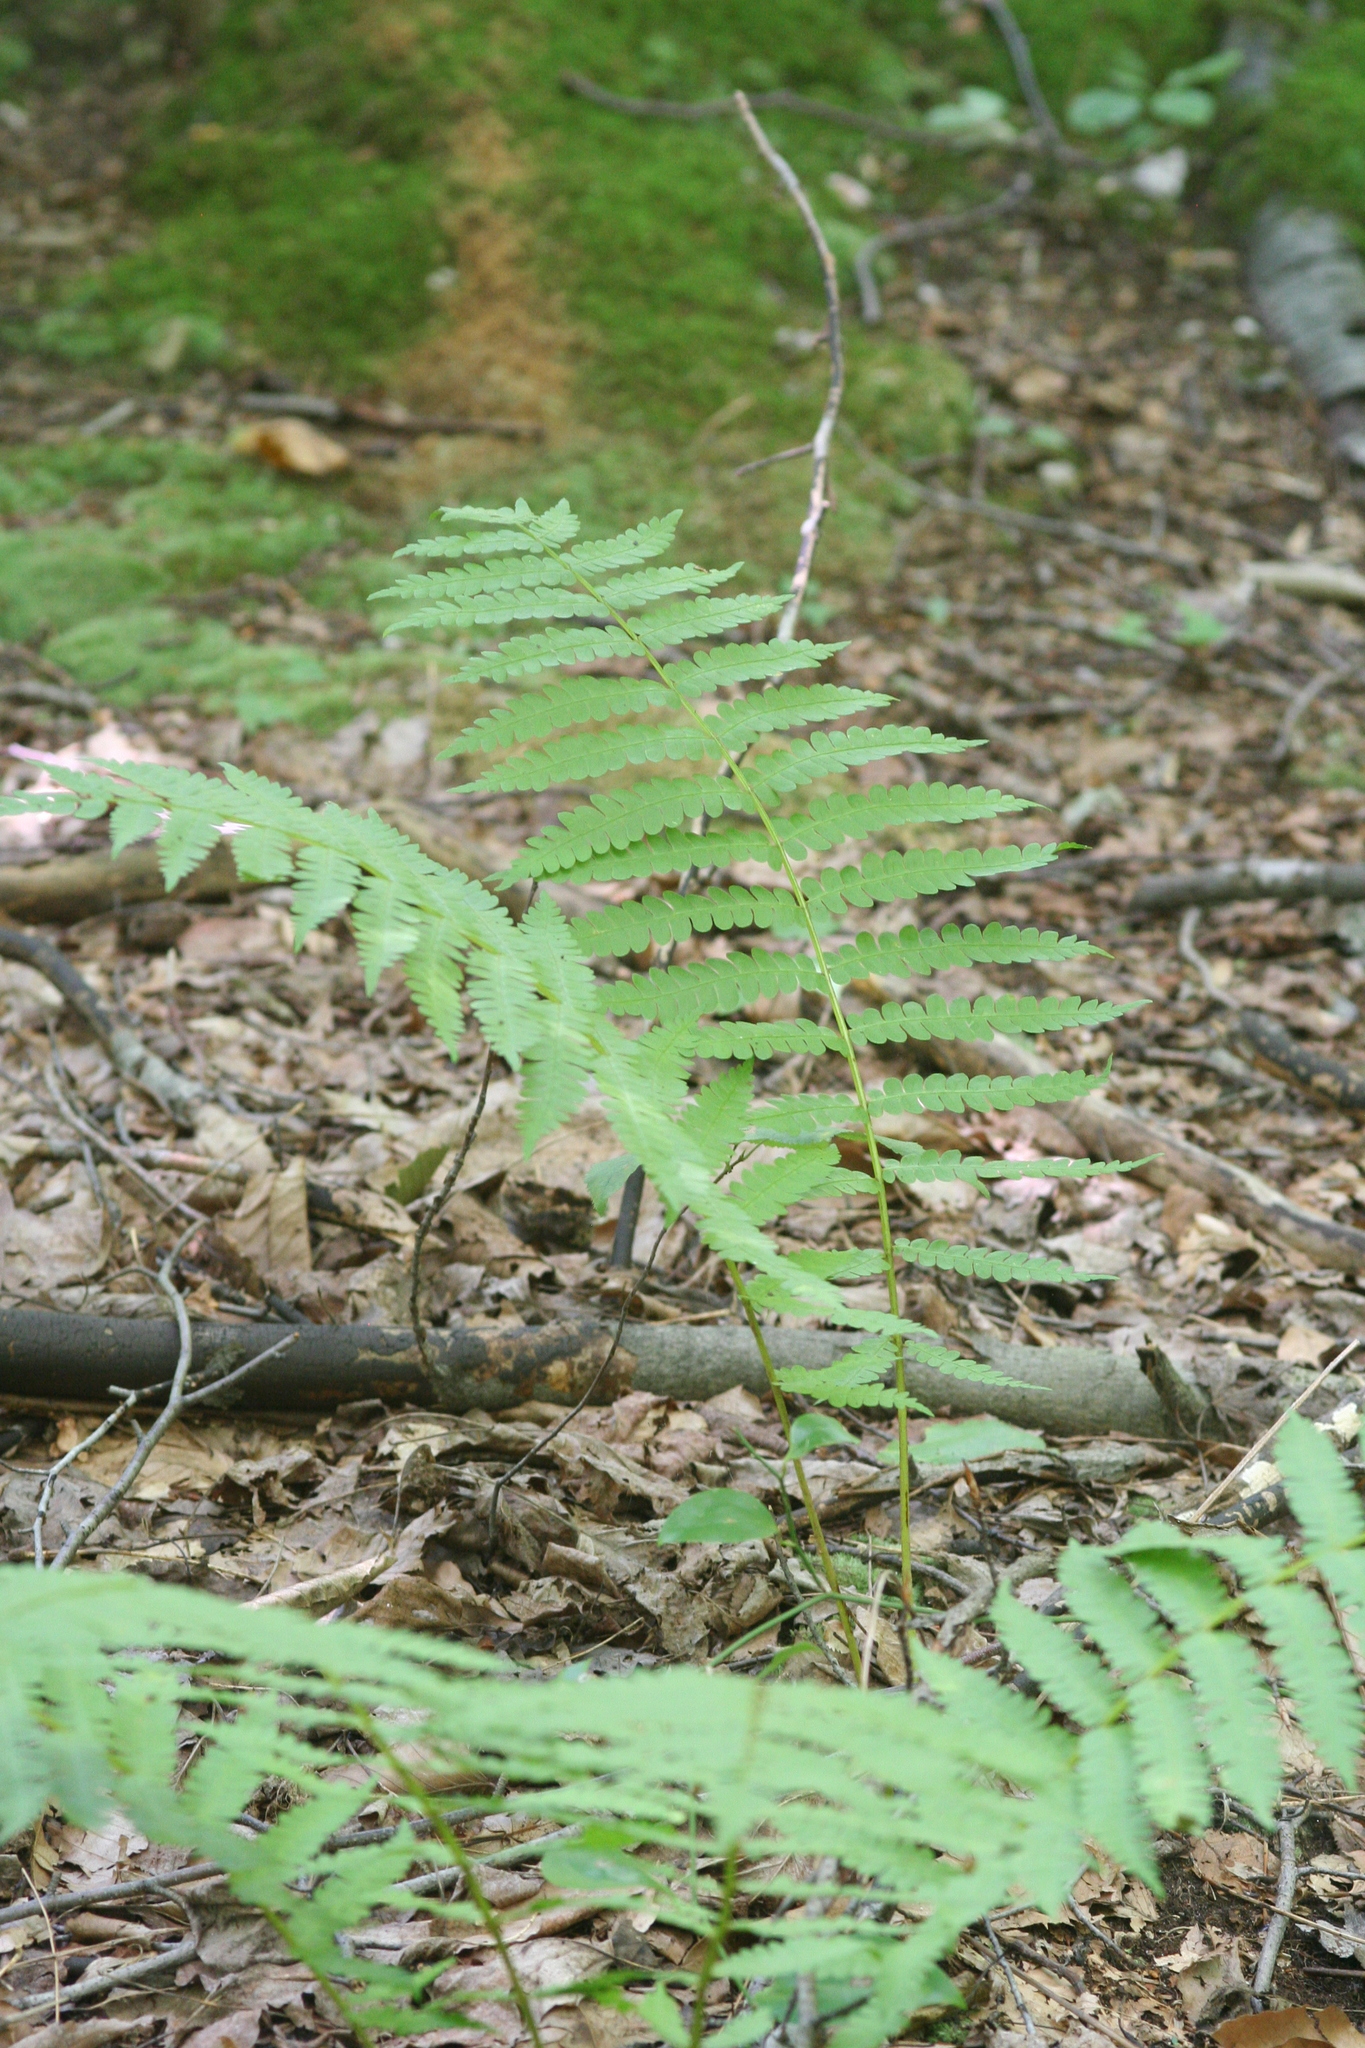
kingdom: Plantae
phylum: Tracheophyta
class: Polypodiopsida
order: Osmundales
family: Osmundaceae
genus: Osmundastrum
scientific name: Osmundastrum cinnamomeum
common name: Cinnamon fern
